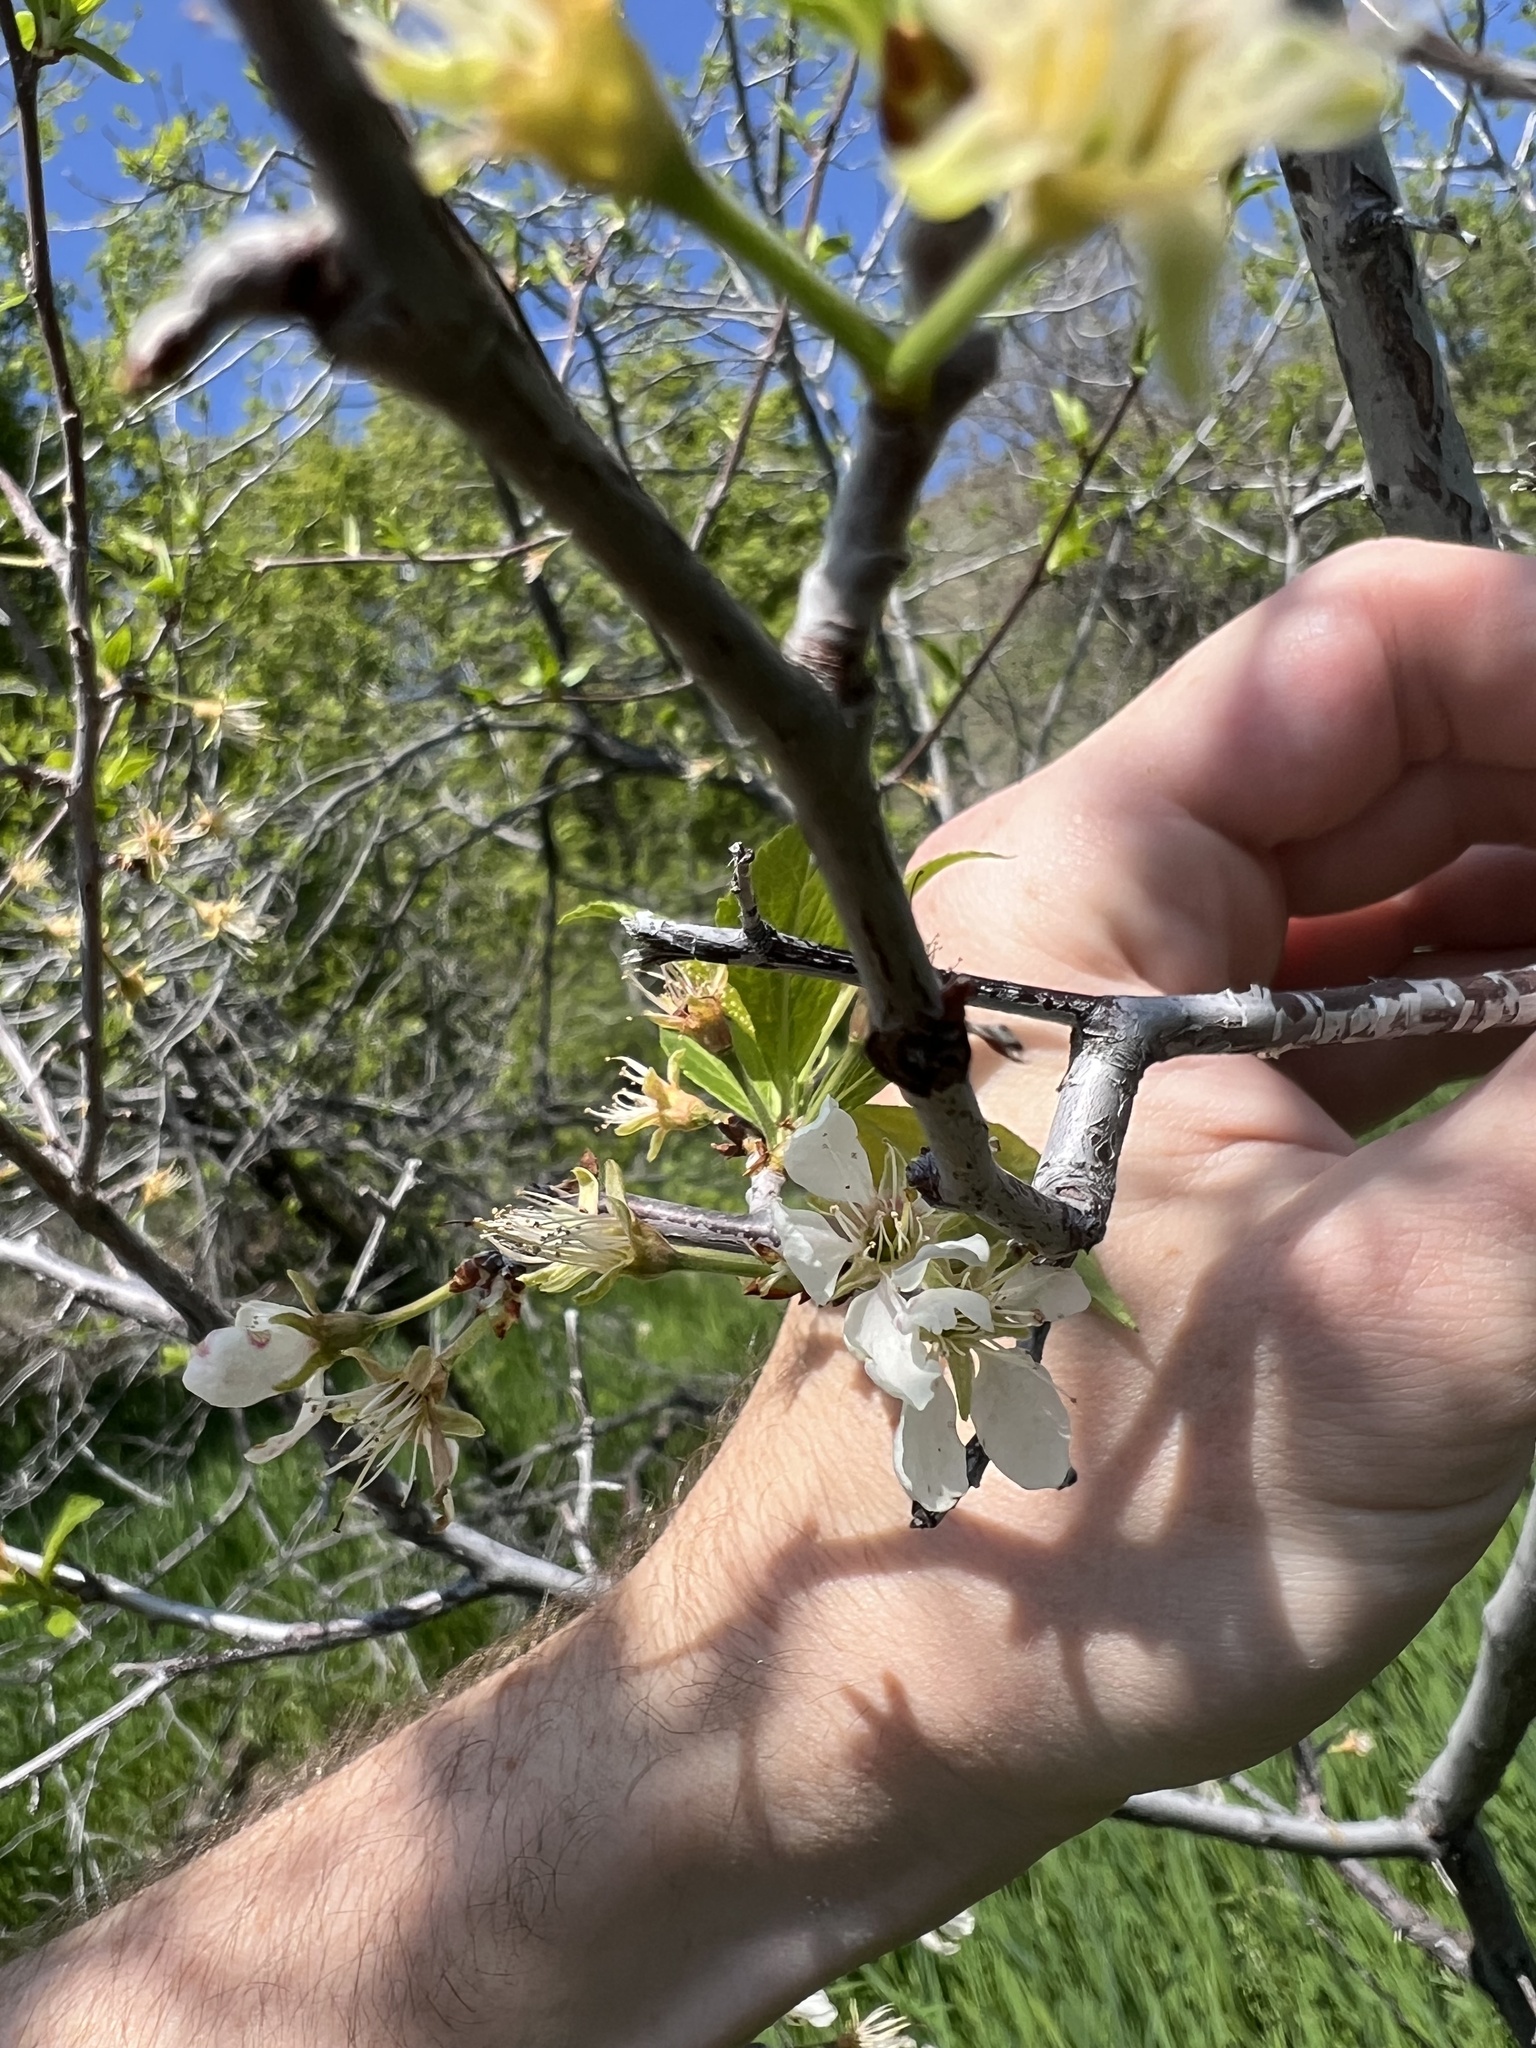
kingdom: Plantae
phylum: Tracheophyta
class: Magnoliopsida
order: Rosales
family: Rosaceae
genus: Prunus
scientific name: Prunus americana
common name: American plum
